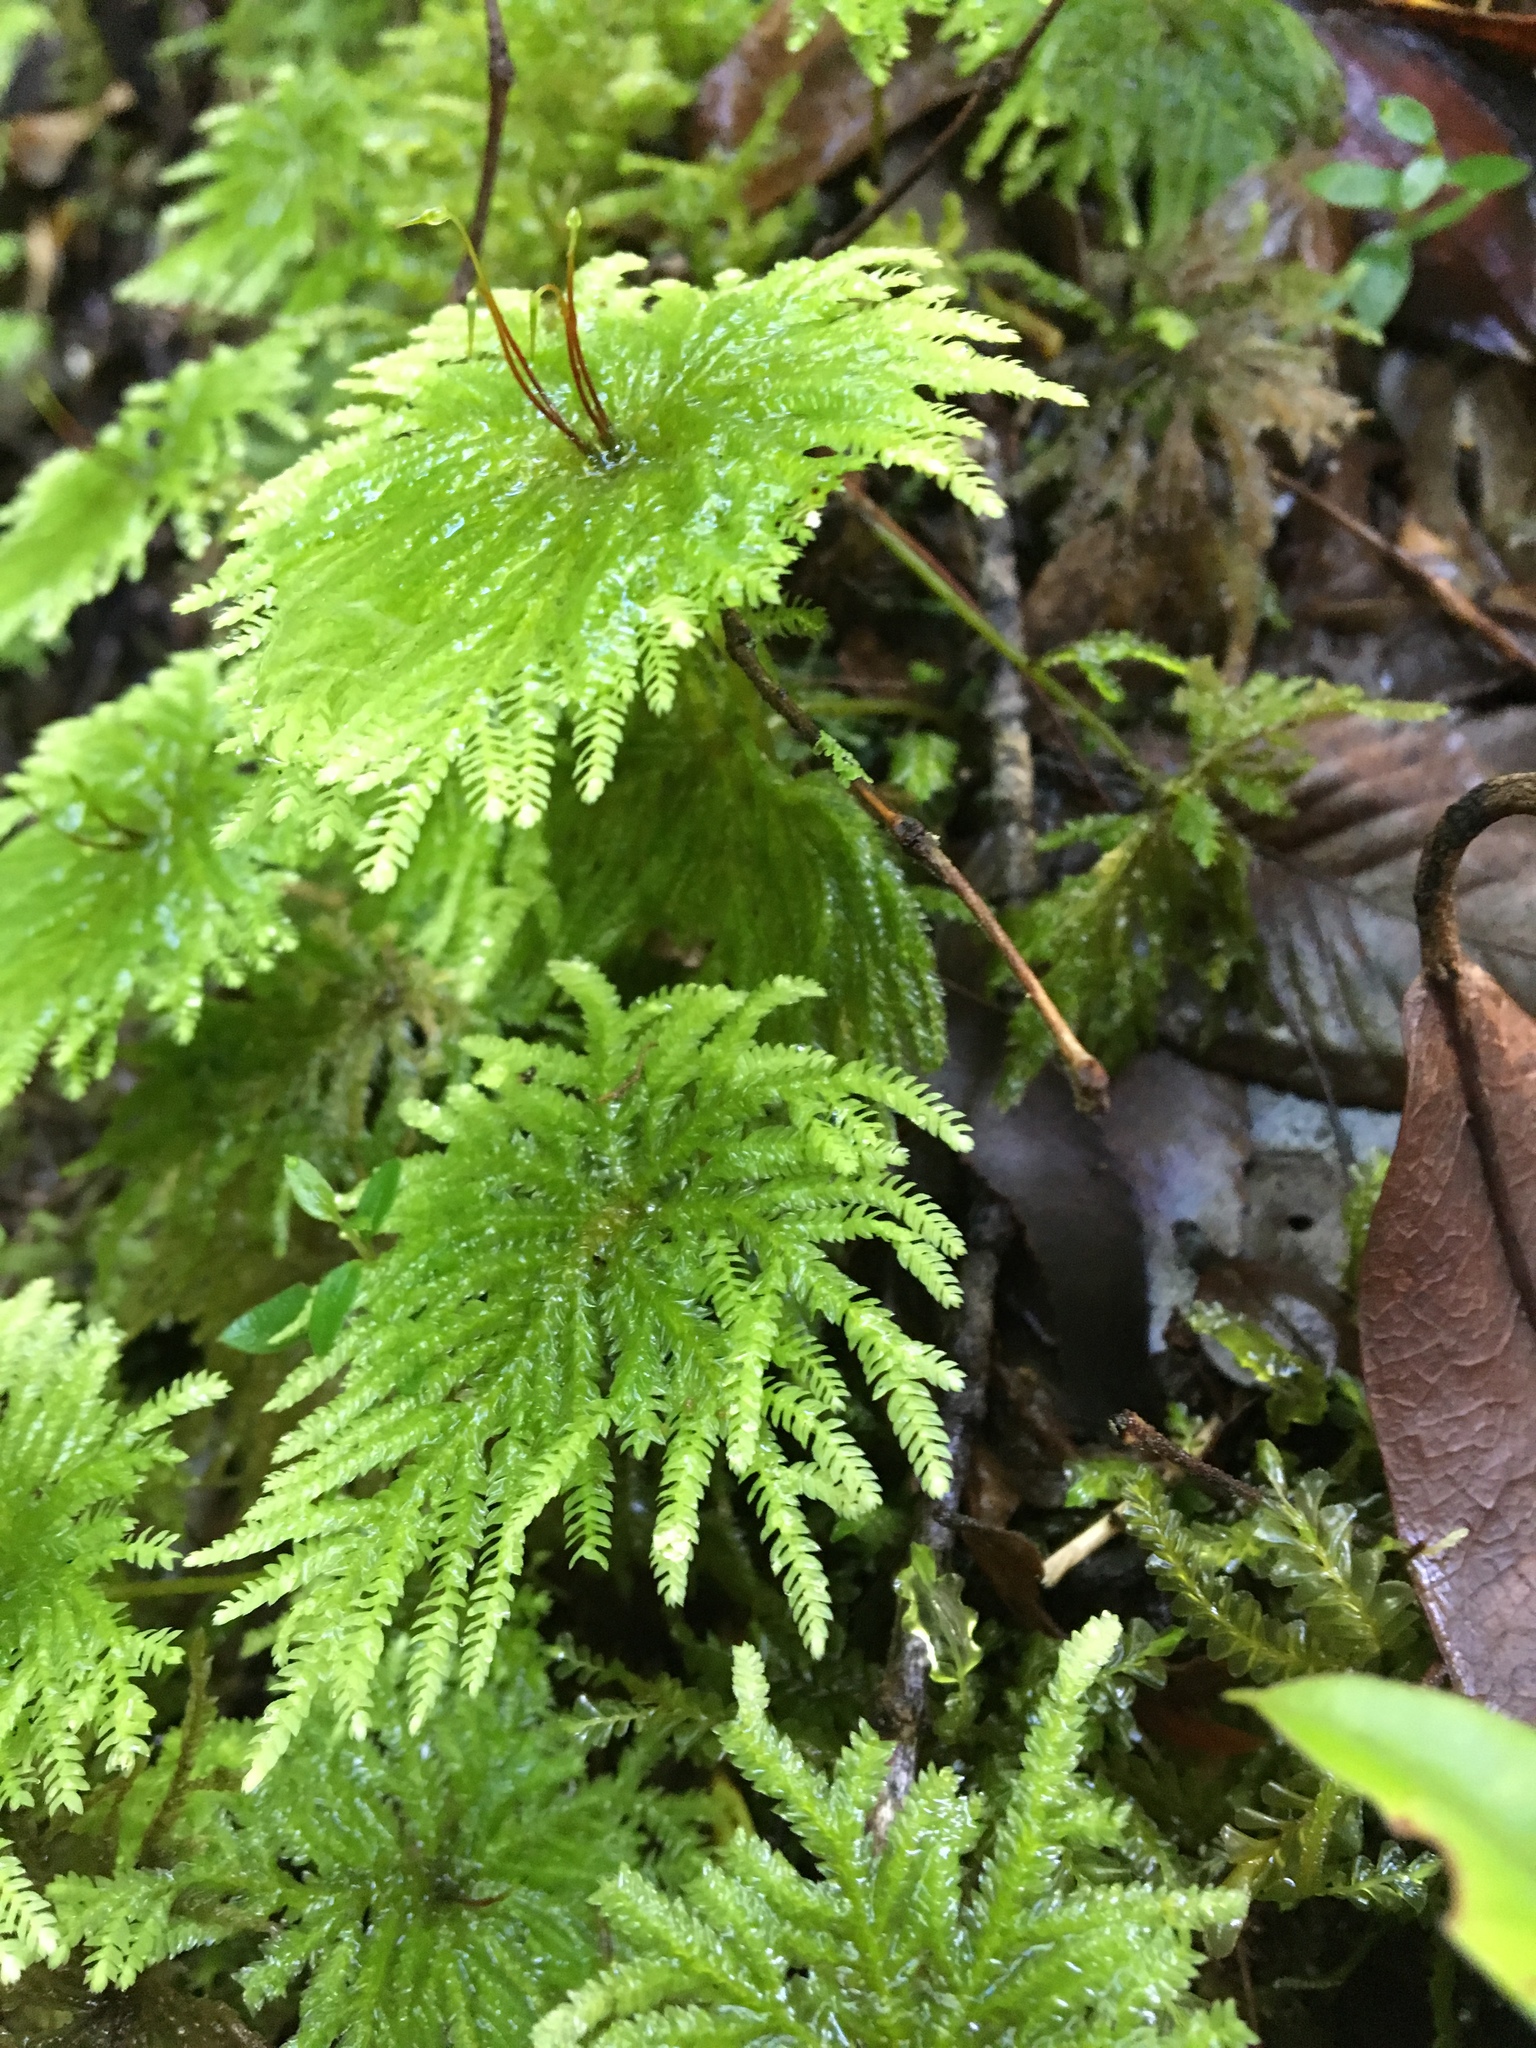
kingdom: Plantae
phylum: Bryophyta
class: Bryopsida
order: Hypopterygiales
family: Hypopterygiaceae
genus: Arbusculohypopterygium
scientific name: Arbusculohypopterygium arbuscula
